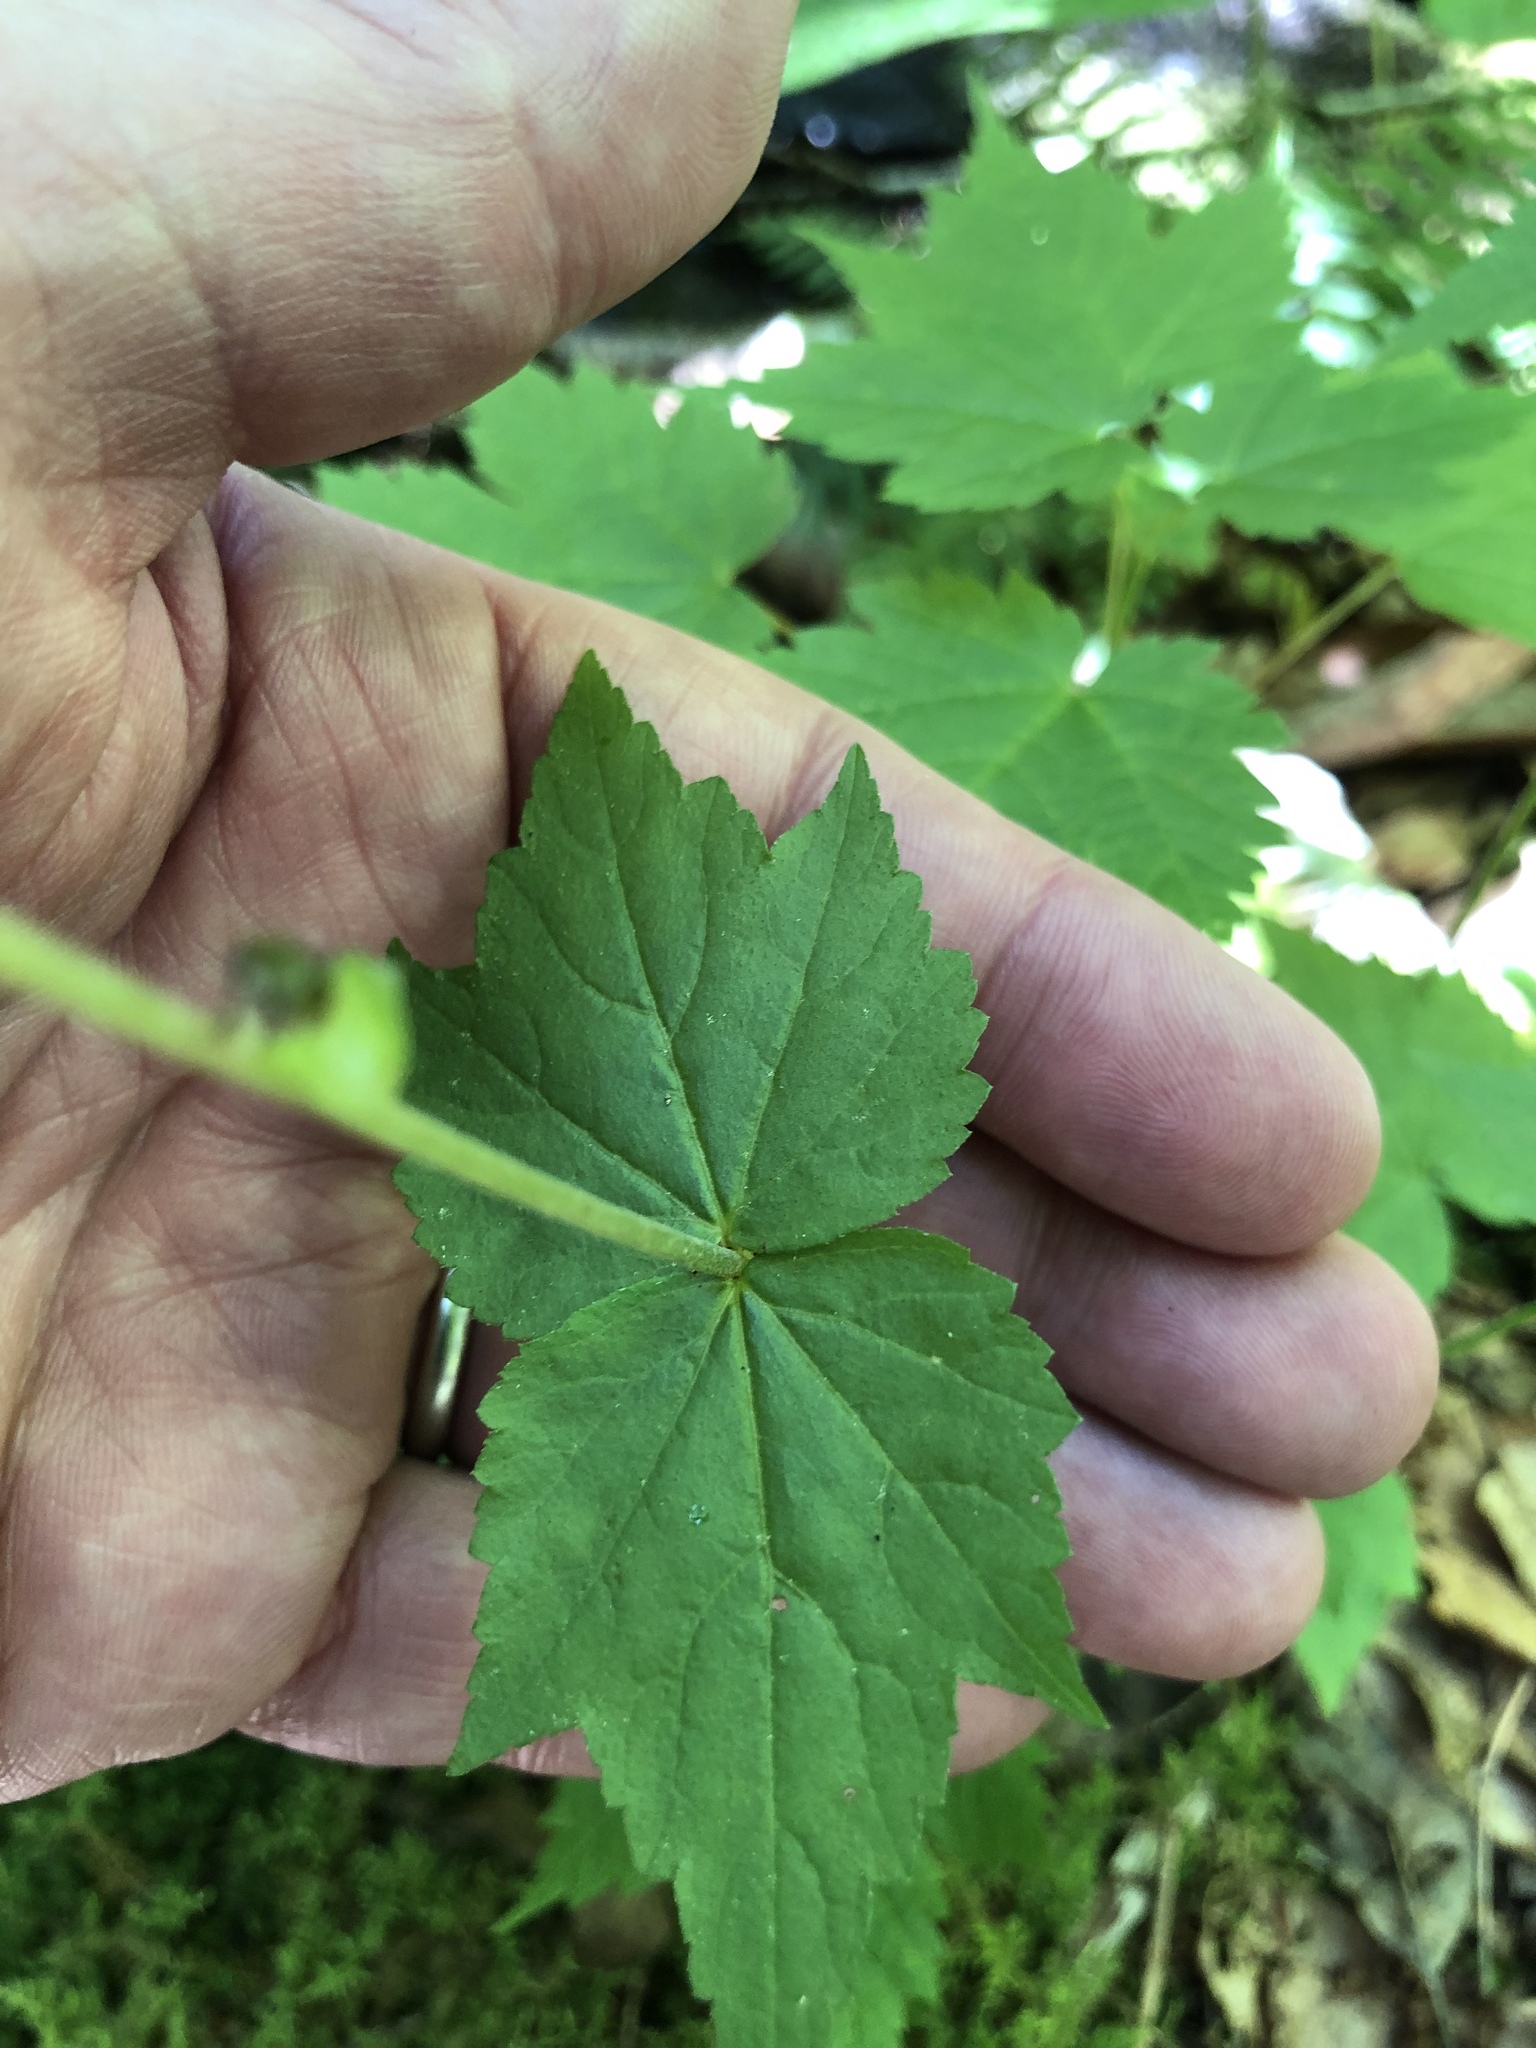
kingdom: Plantae
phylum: Tracheophyta
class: Magnoliopsida
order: Saxifragales
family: Saxifragaceae
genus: Mitella
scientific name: Mitella diphylla
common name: Coolwort
